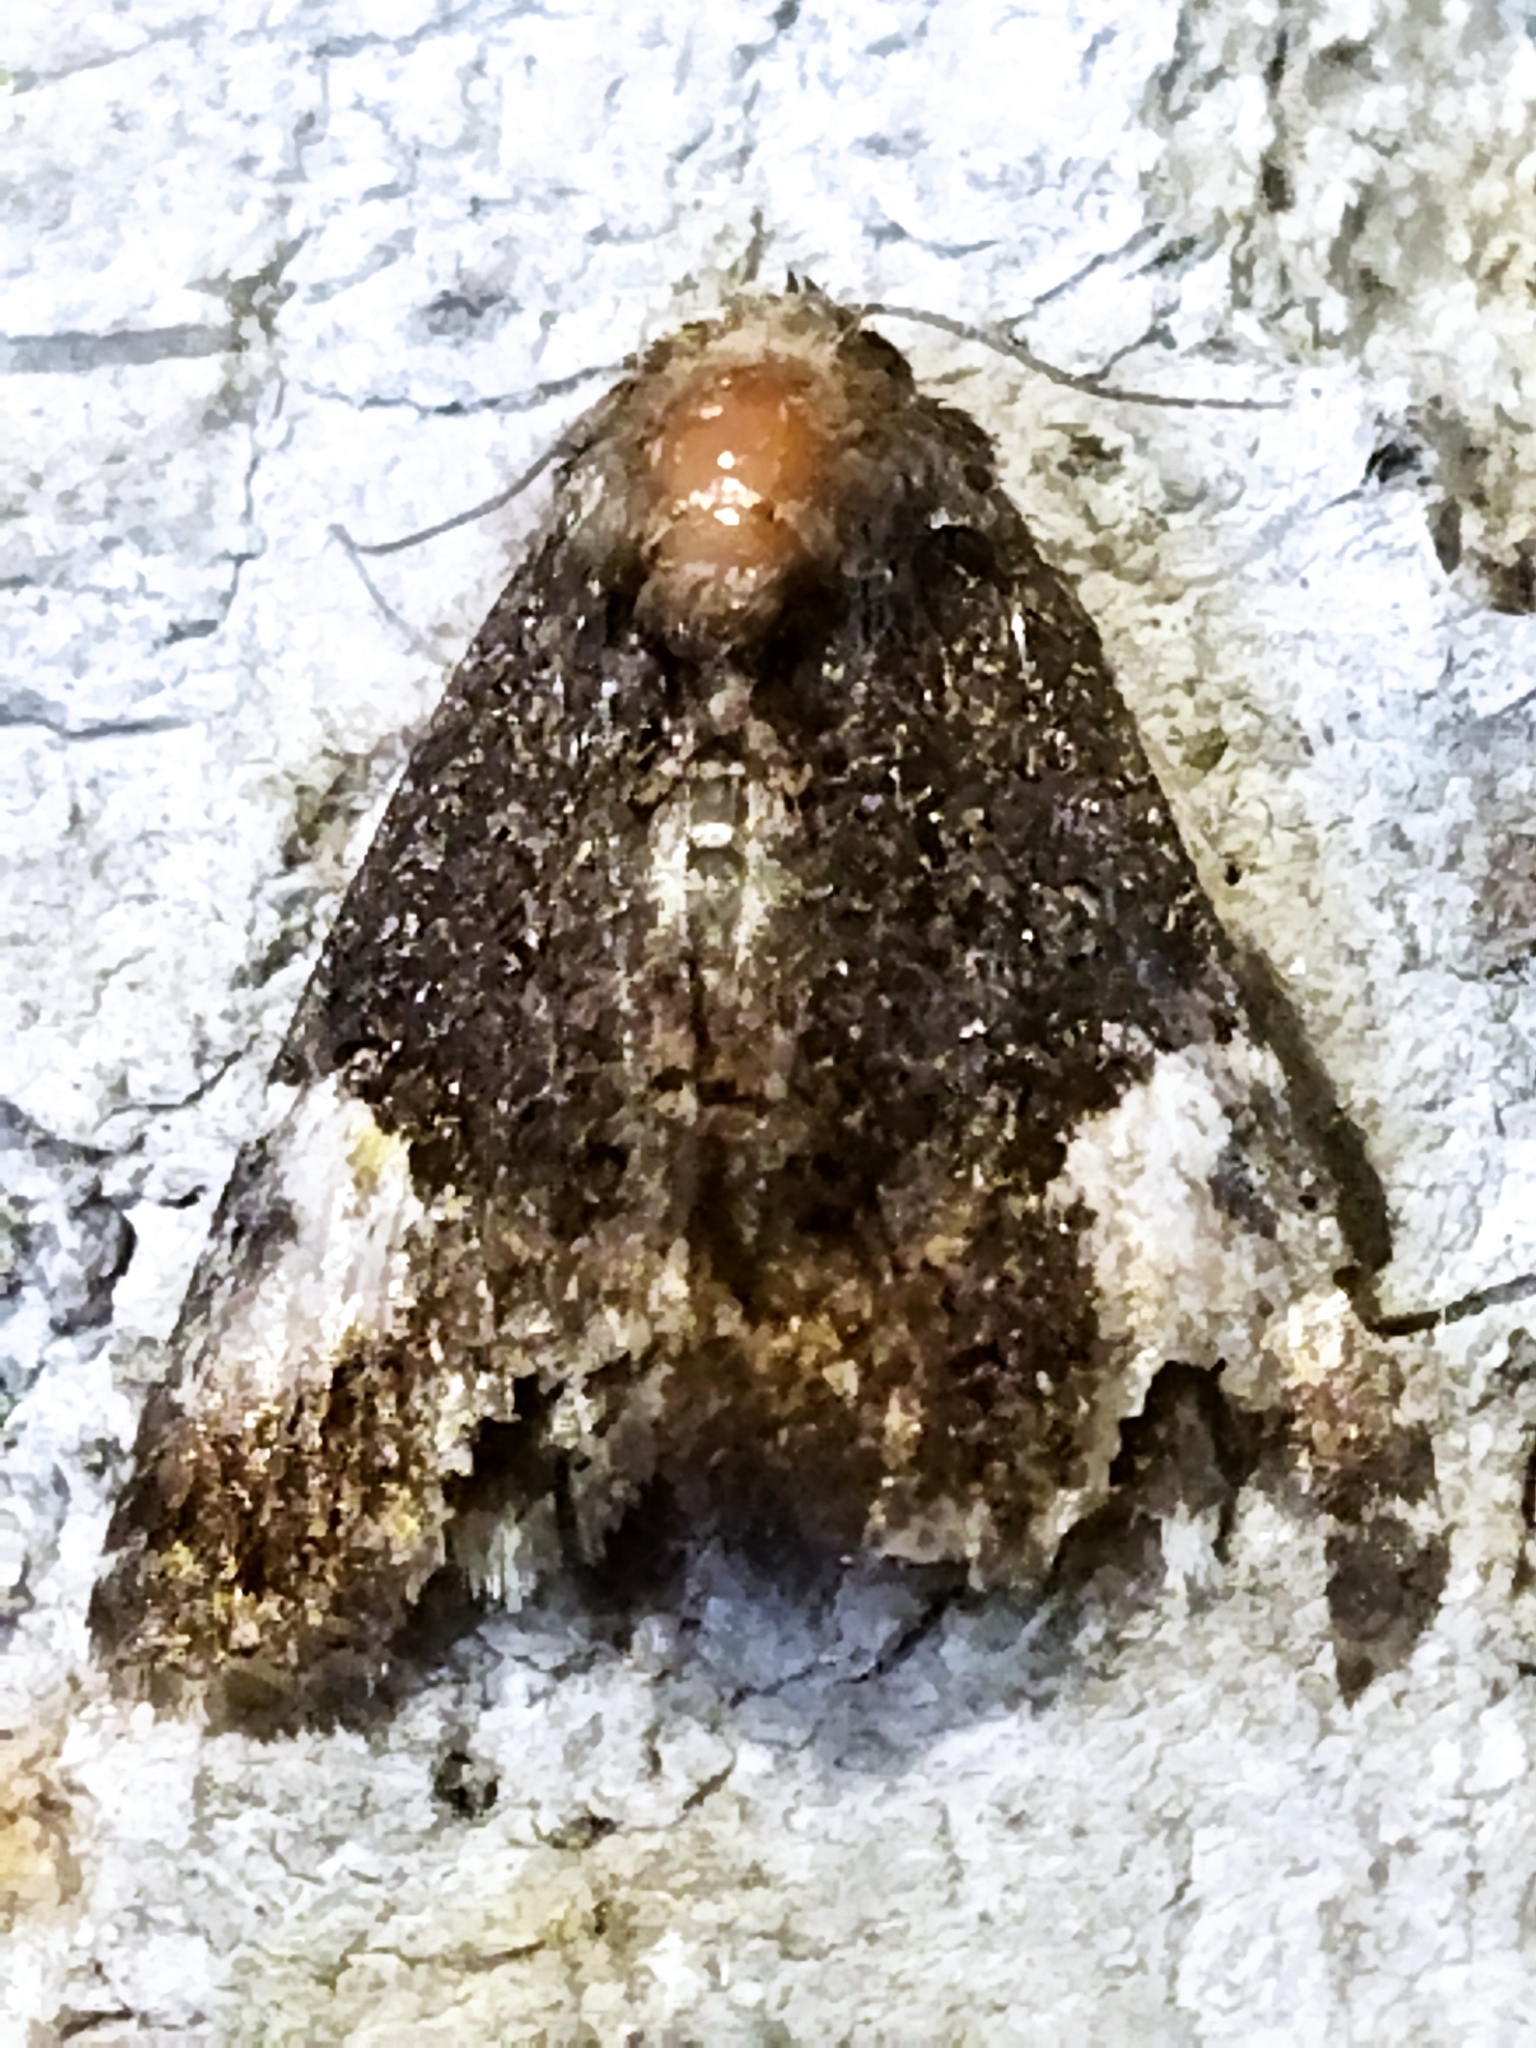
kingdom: Animalia
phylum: Arthropoda
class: Insecta
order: Lepidoptera
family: Noctuidae
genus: Aedia
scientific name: Aedia funesta
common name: The druid
